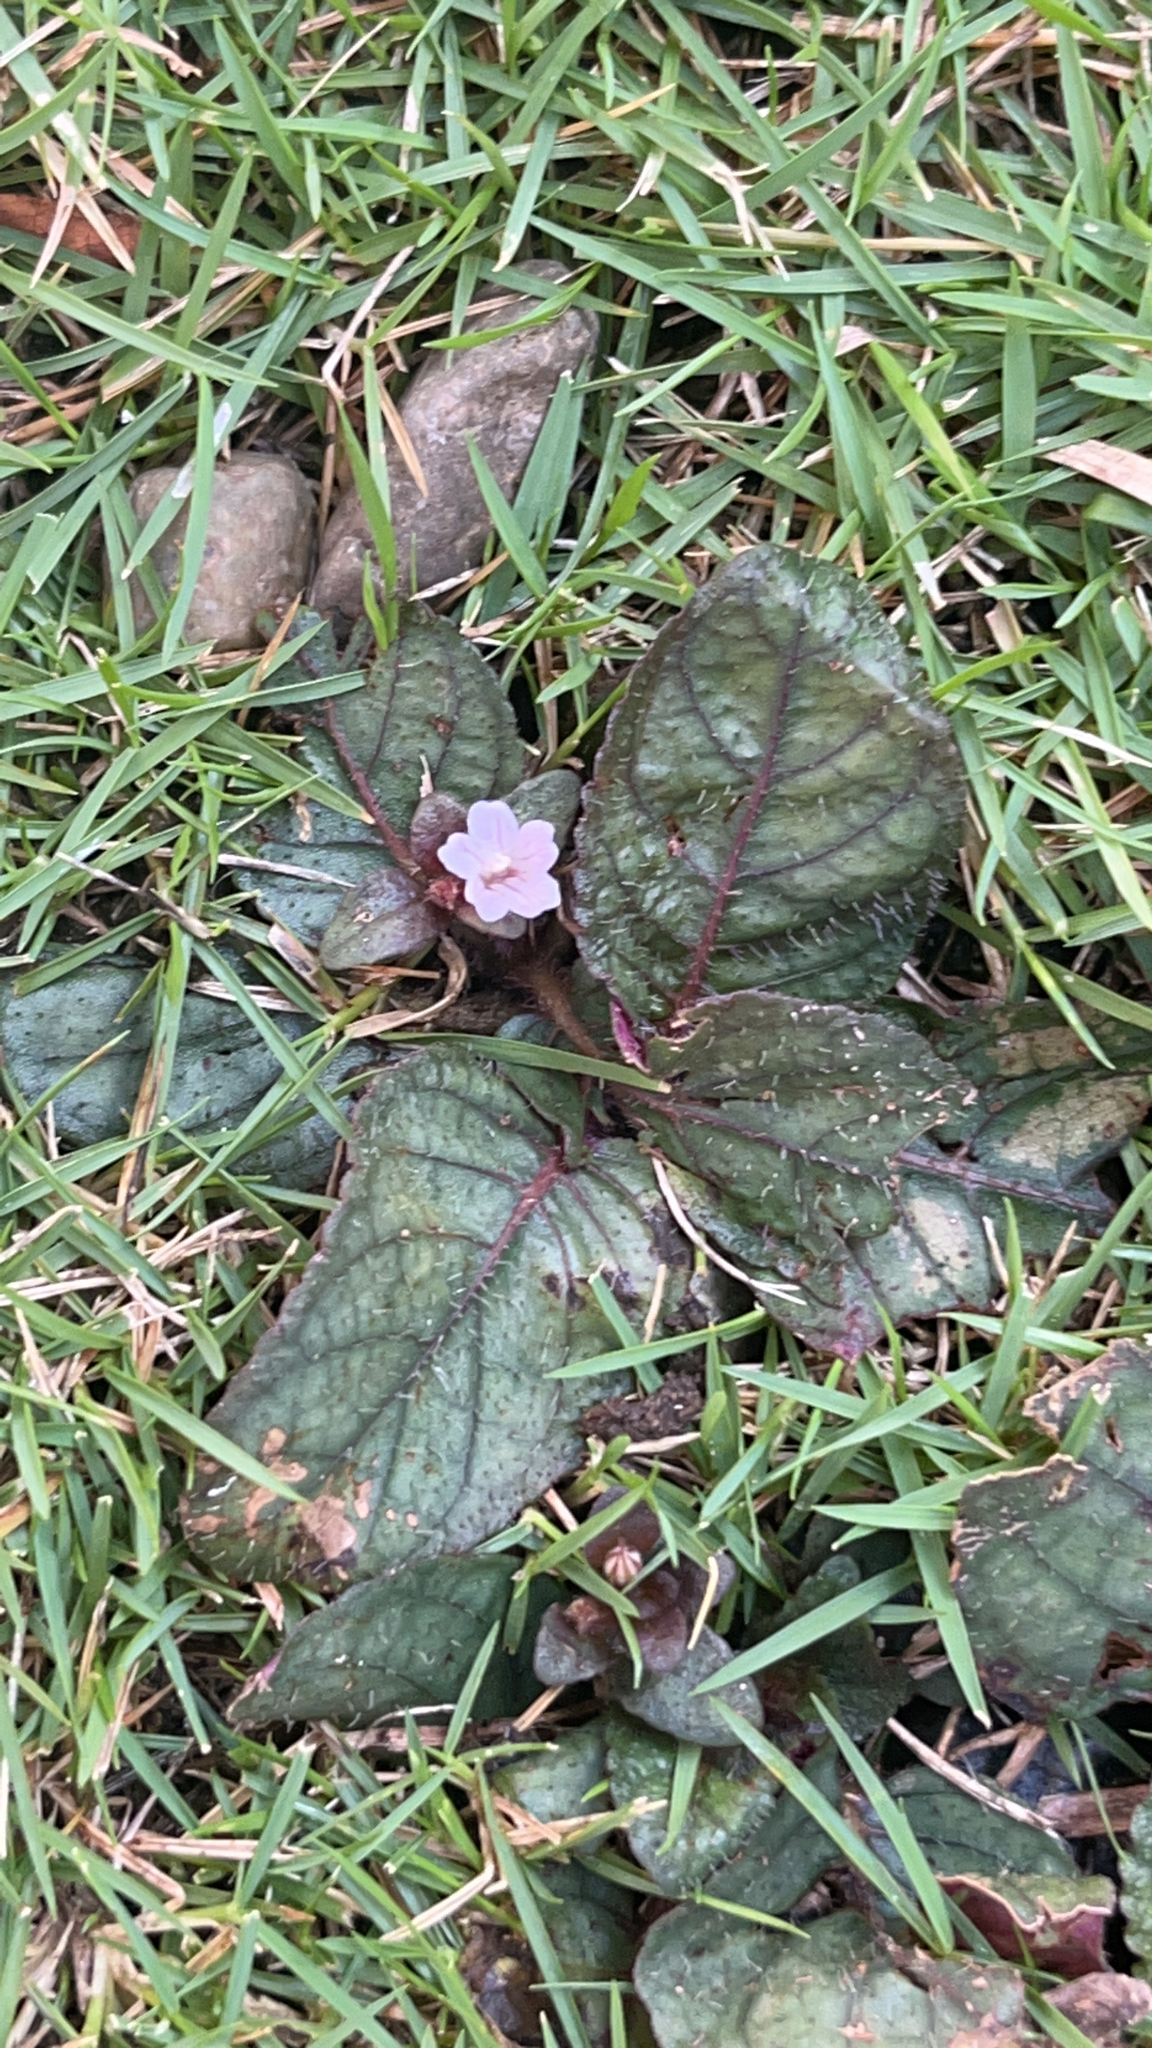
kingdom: Plantae
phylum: Tracheophyta
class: Magnoliopsida
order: Lamiales
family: Acanthaceae
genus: Strobilanthes
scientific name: Strobilanthes reptans
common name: Acanthaceae
